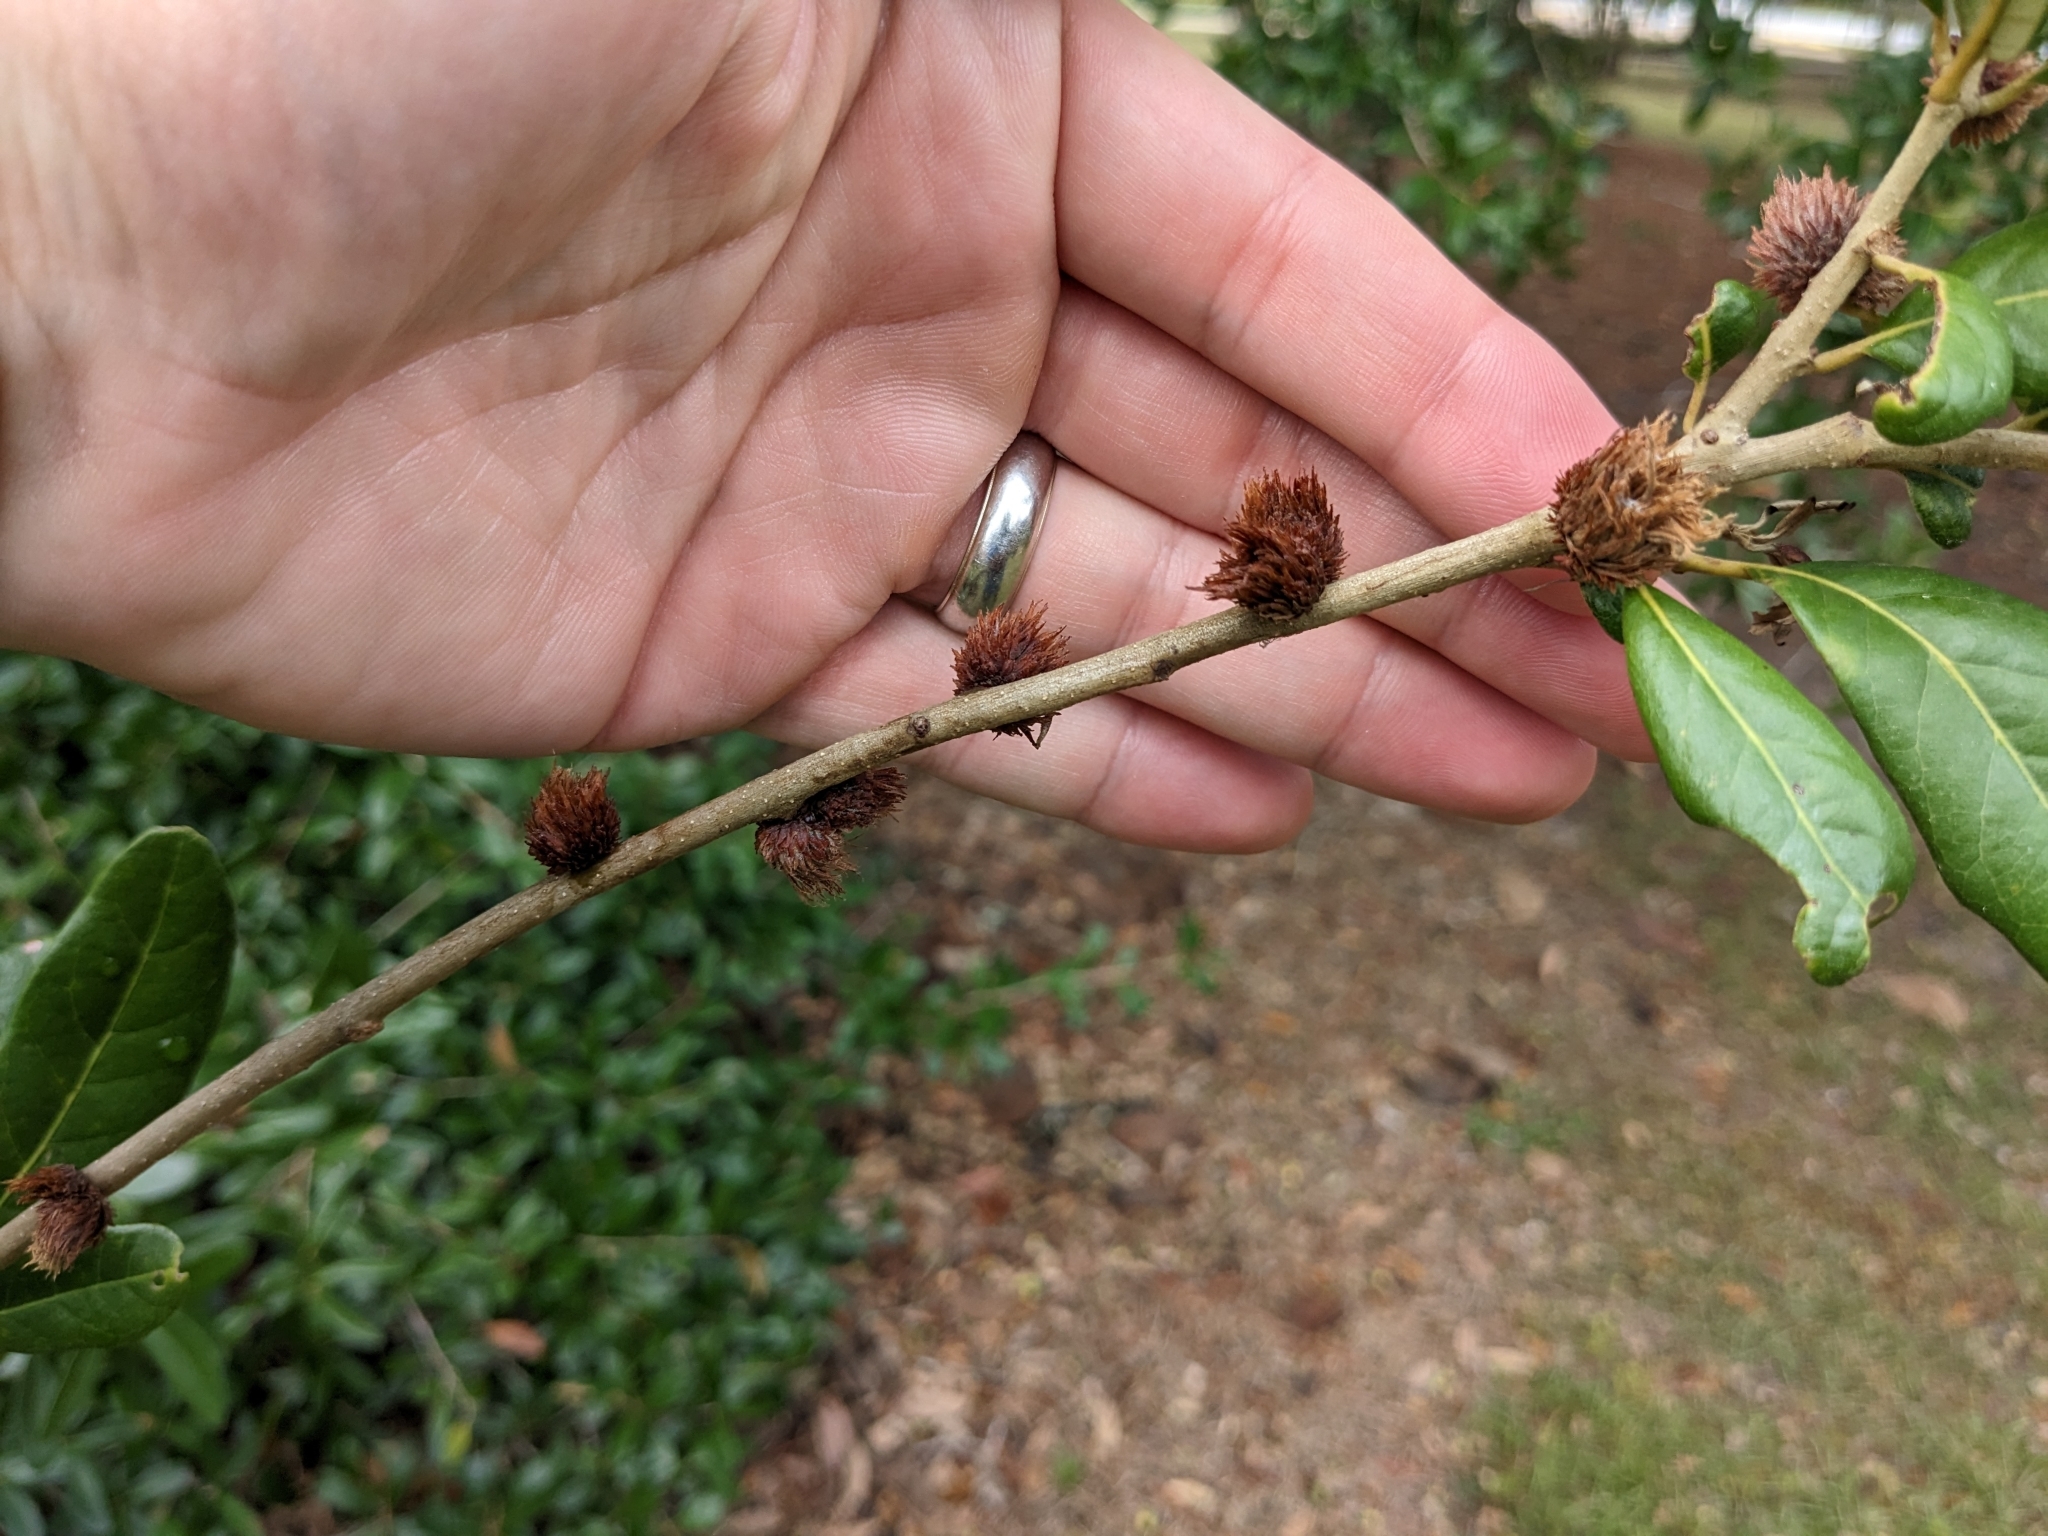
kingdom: Animalia
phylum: Arthropoda
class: Insecta
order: Hymenoptera
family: Cynipidae
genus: Andricus
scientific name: Andricus quercusfoliatus
